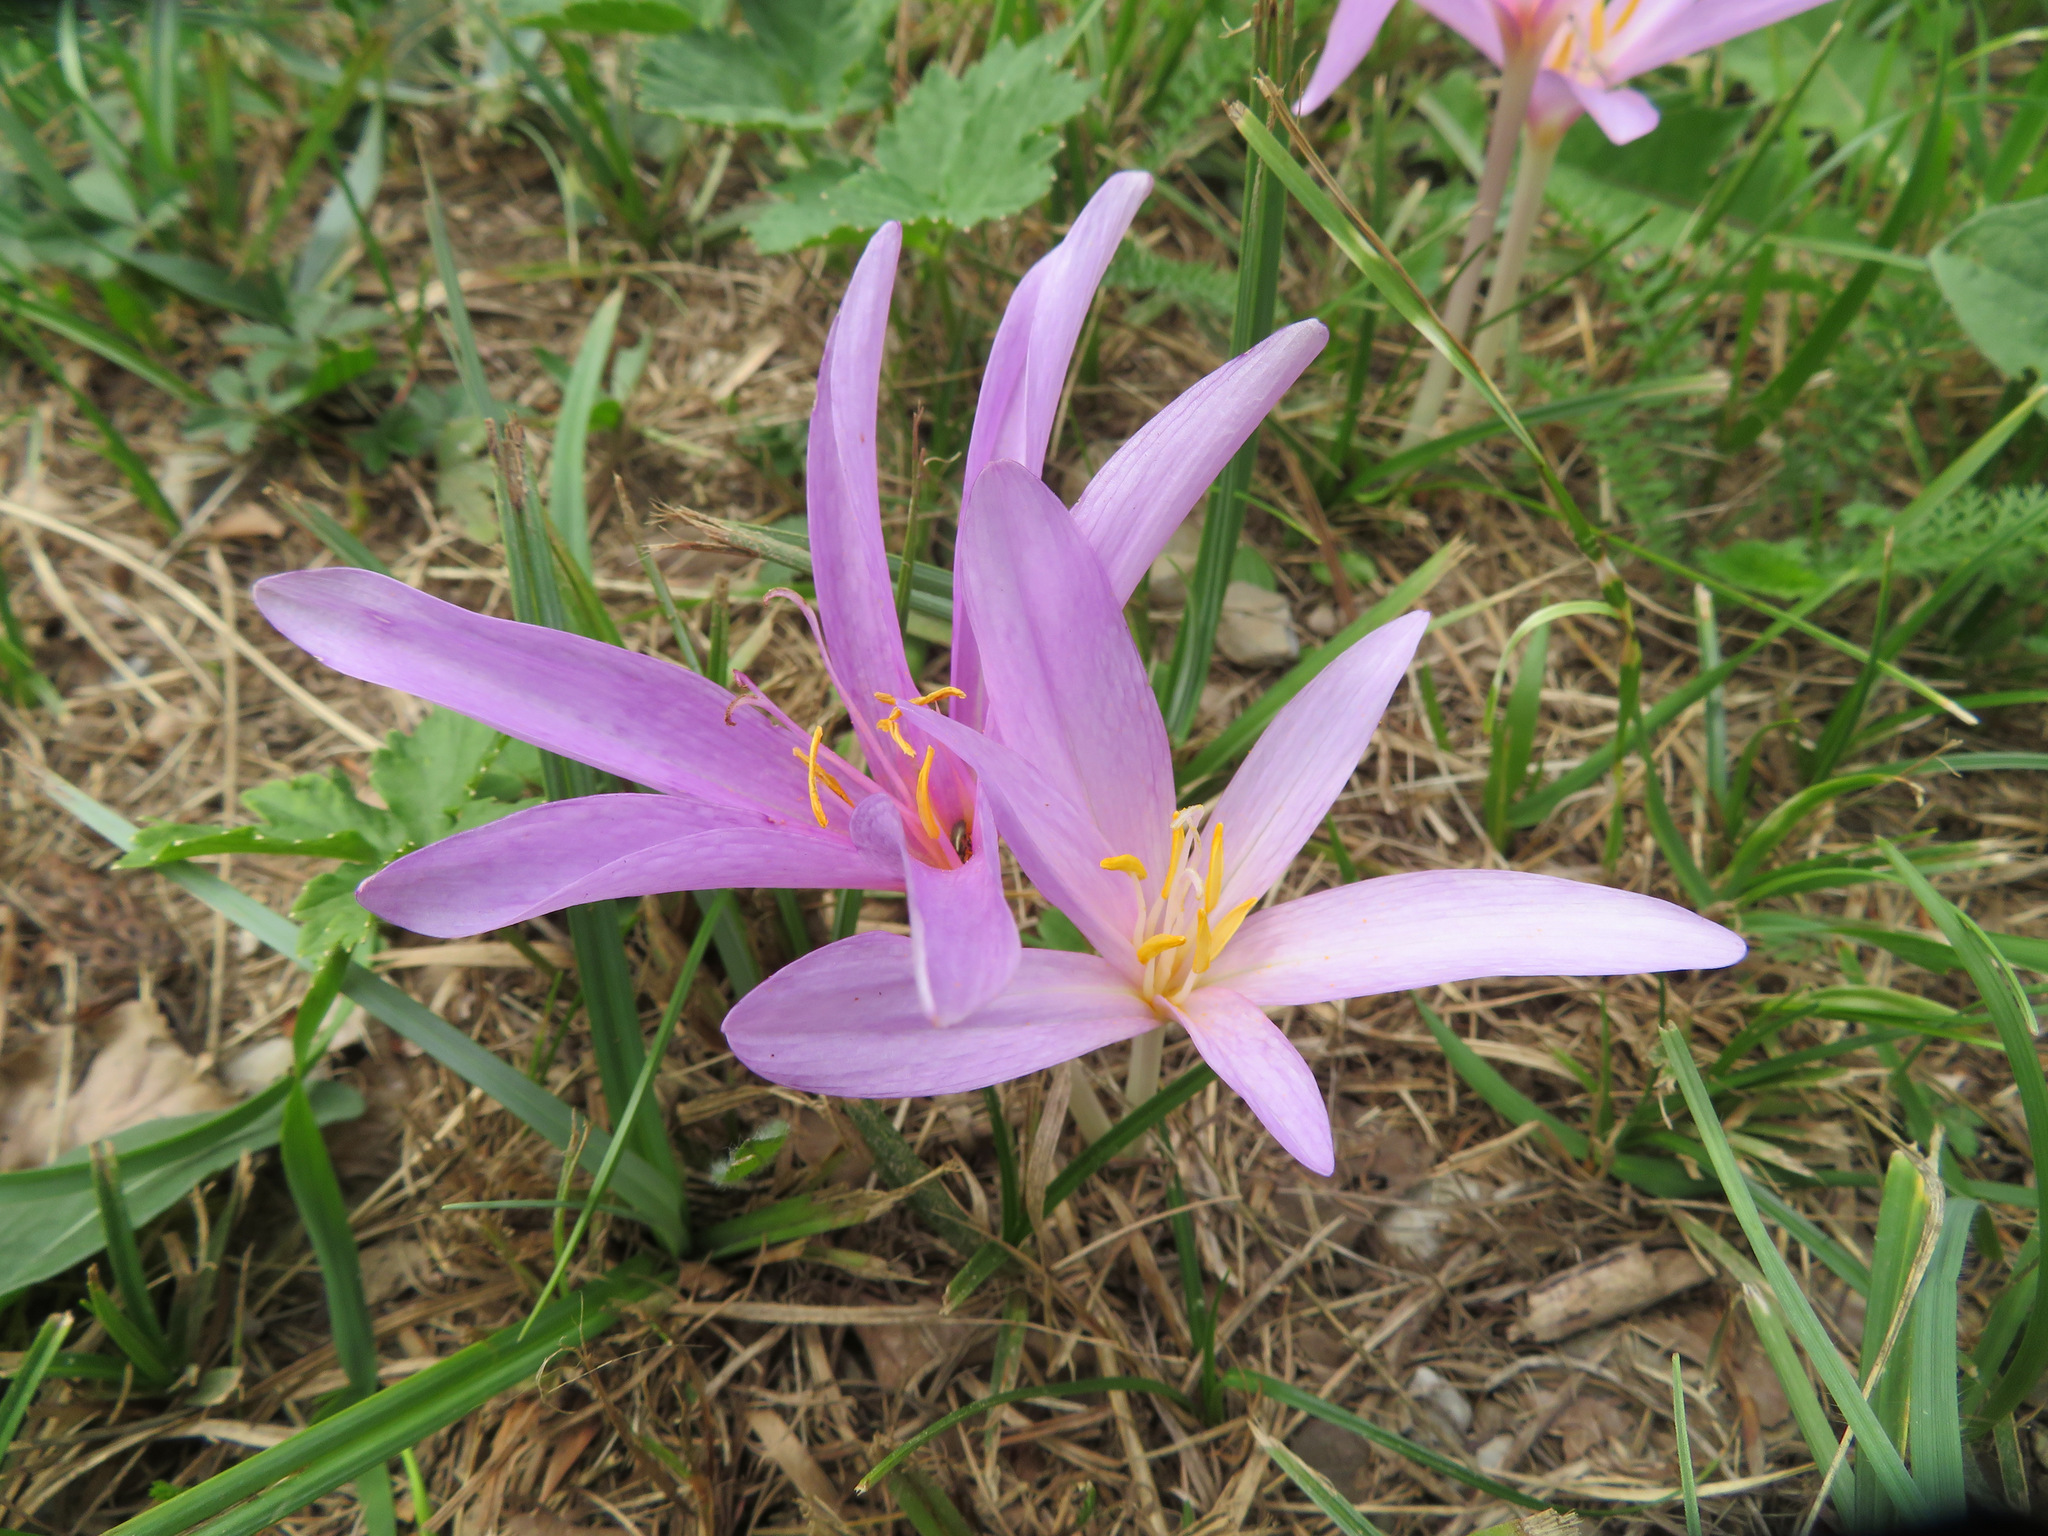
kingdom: Plantae
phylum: Tracheophyta
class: Liliopsida
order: Liliales
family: Colchicaceae
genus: Colchicum
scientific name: Colchicum autumnale
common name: Autumn crocus
